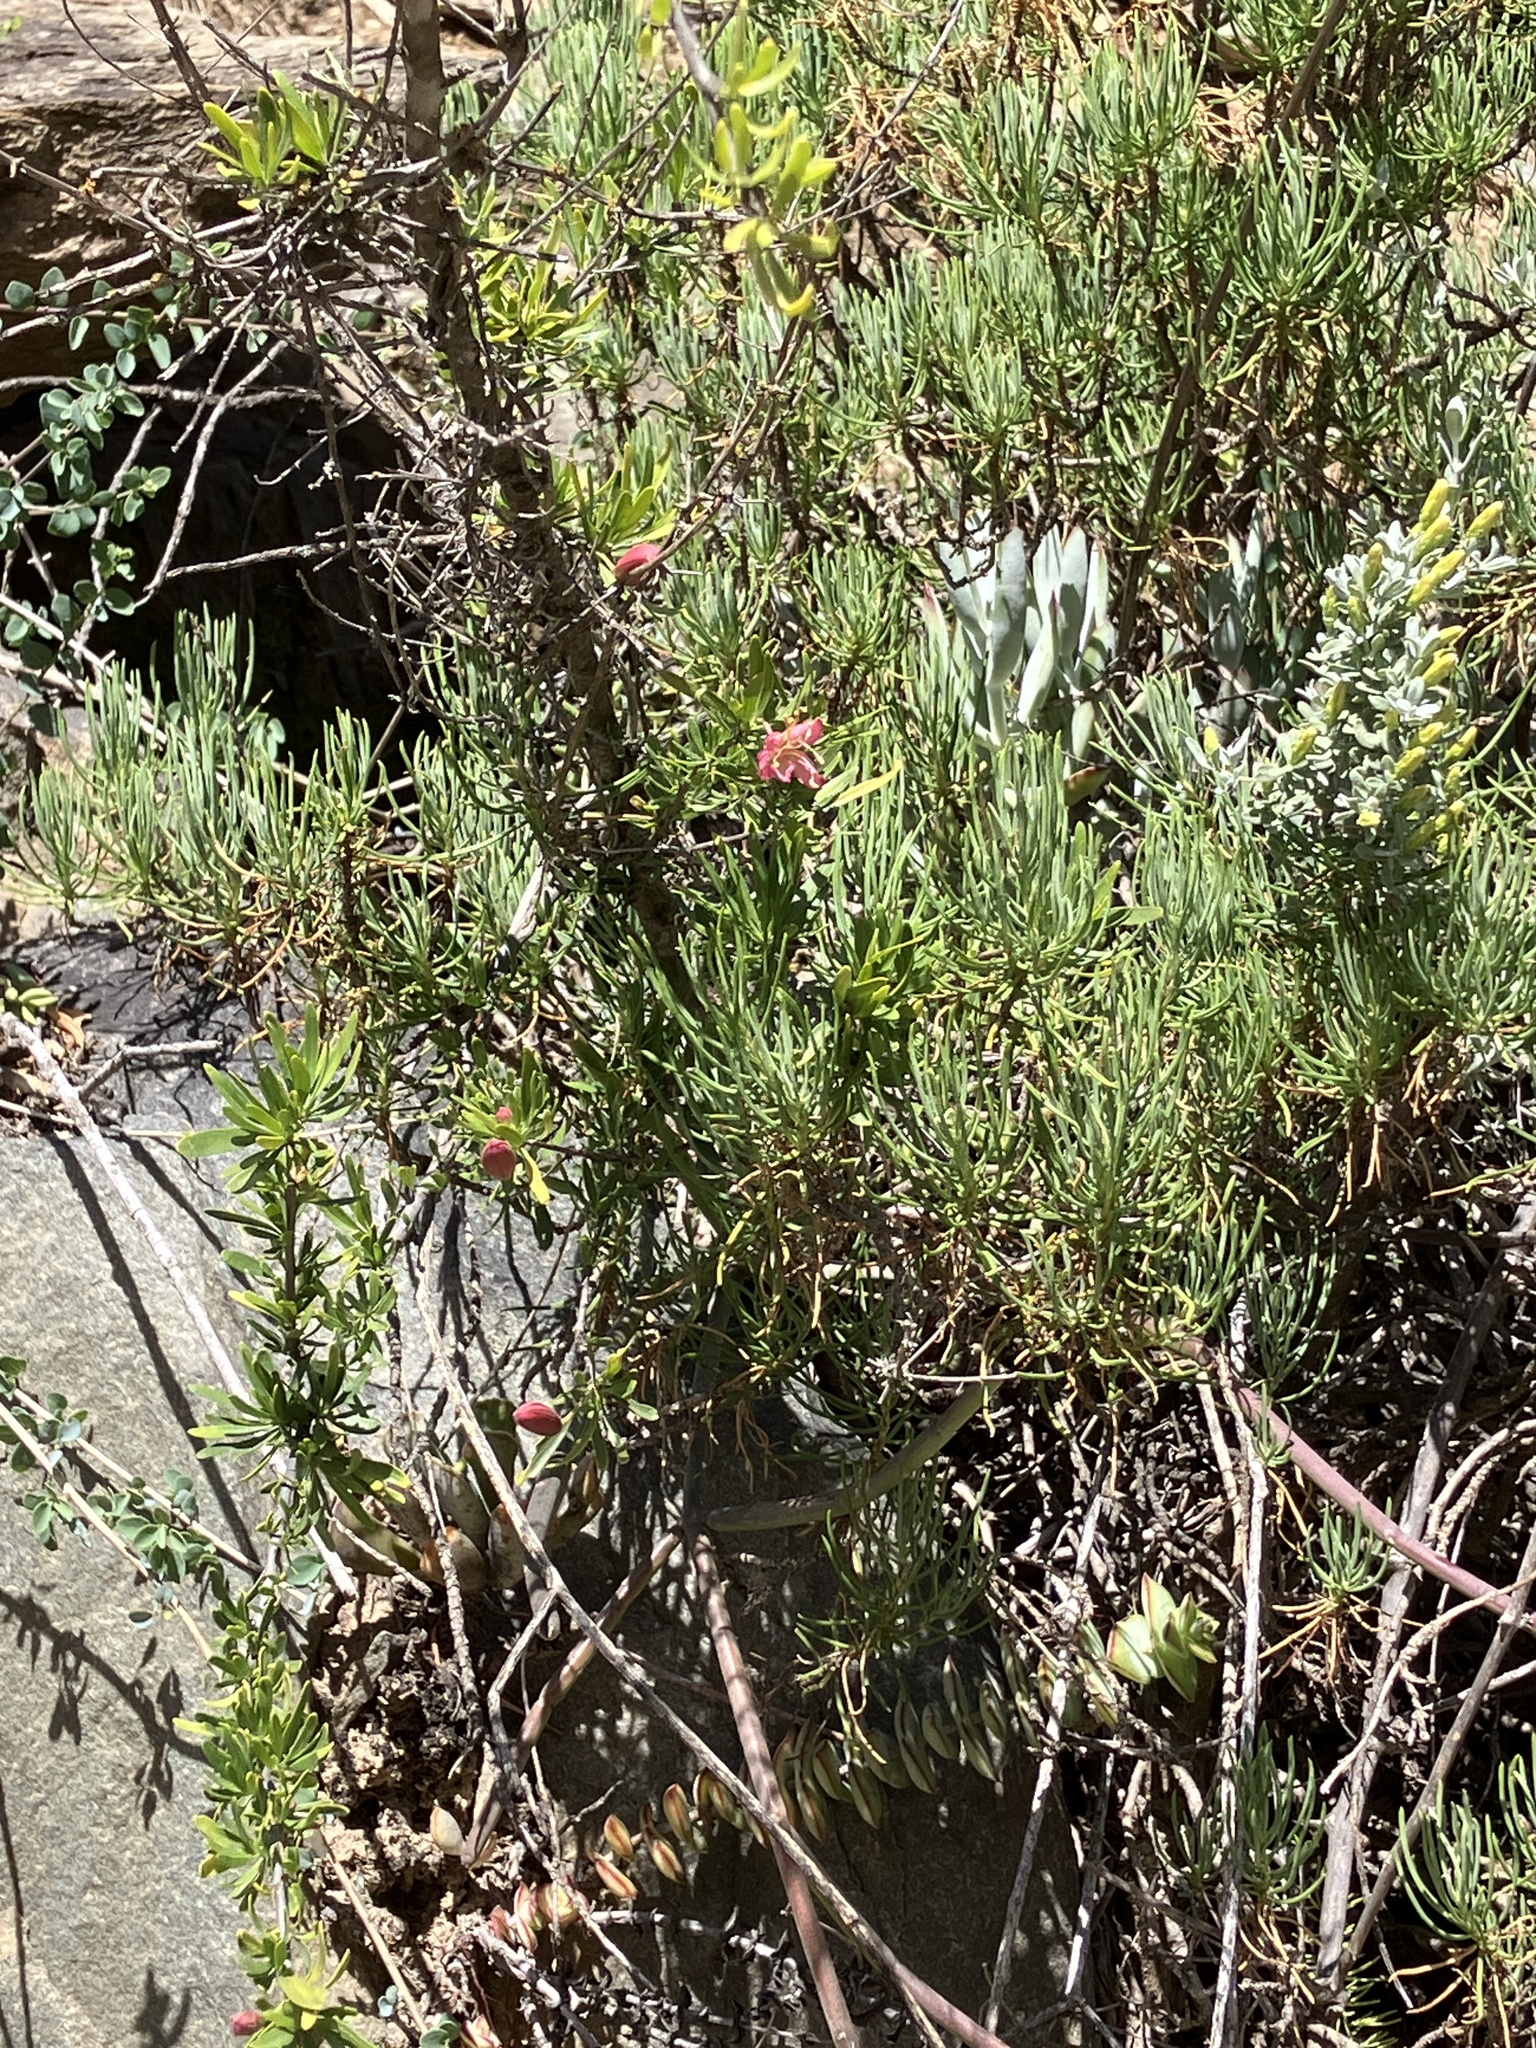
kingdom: Plantae
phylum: Tracheophyta
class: Magnoliopsida
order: Sapindales
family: Meliaceae
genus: Nymania
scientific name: Nymania capensis
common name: Chinese lantern tree
